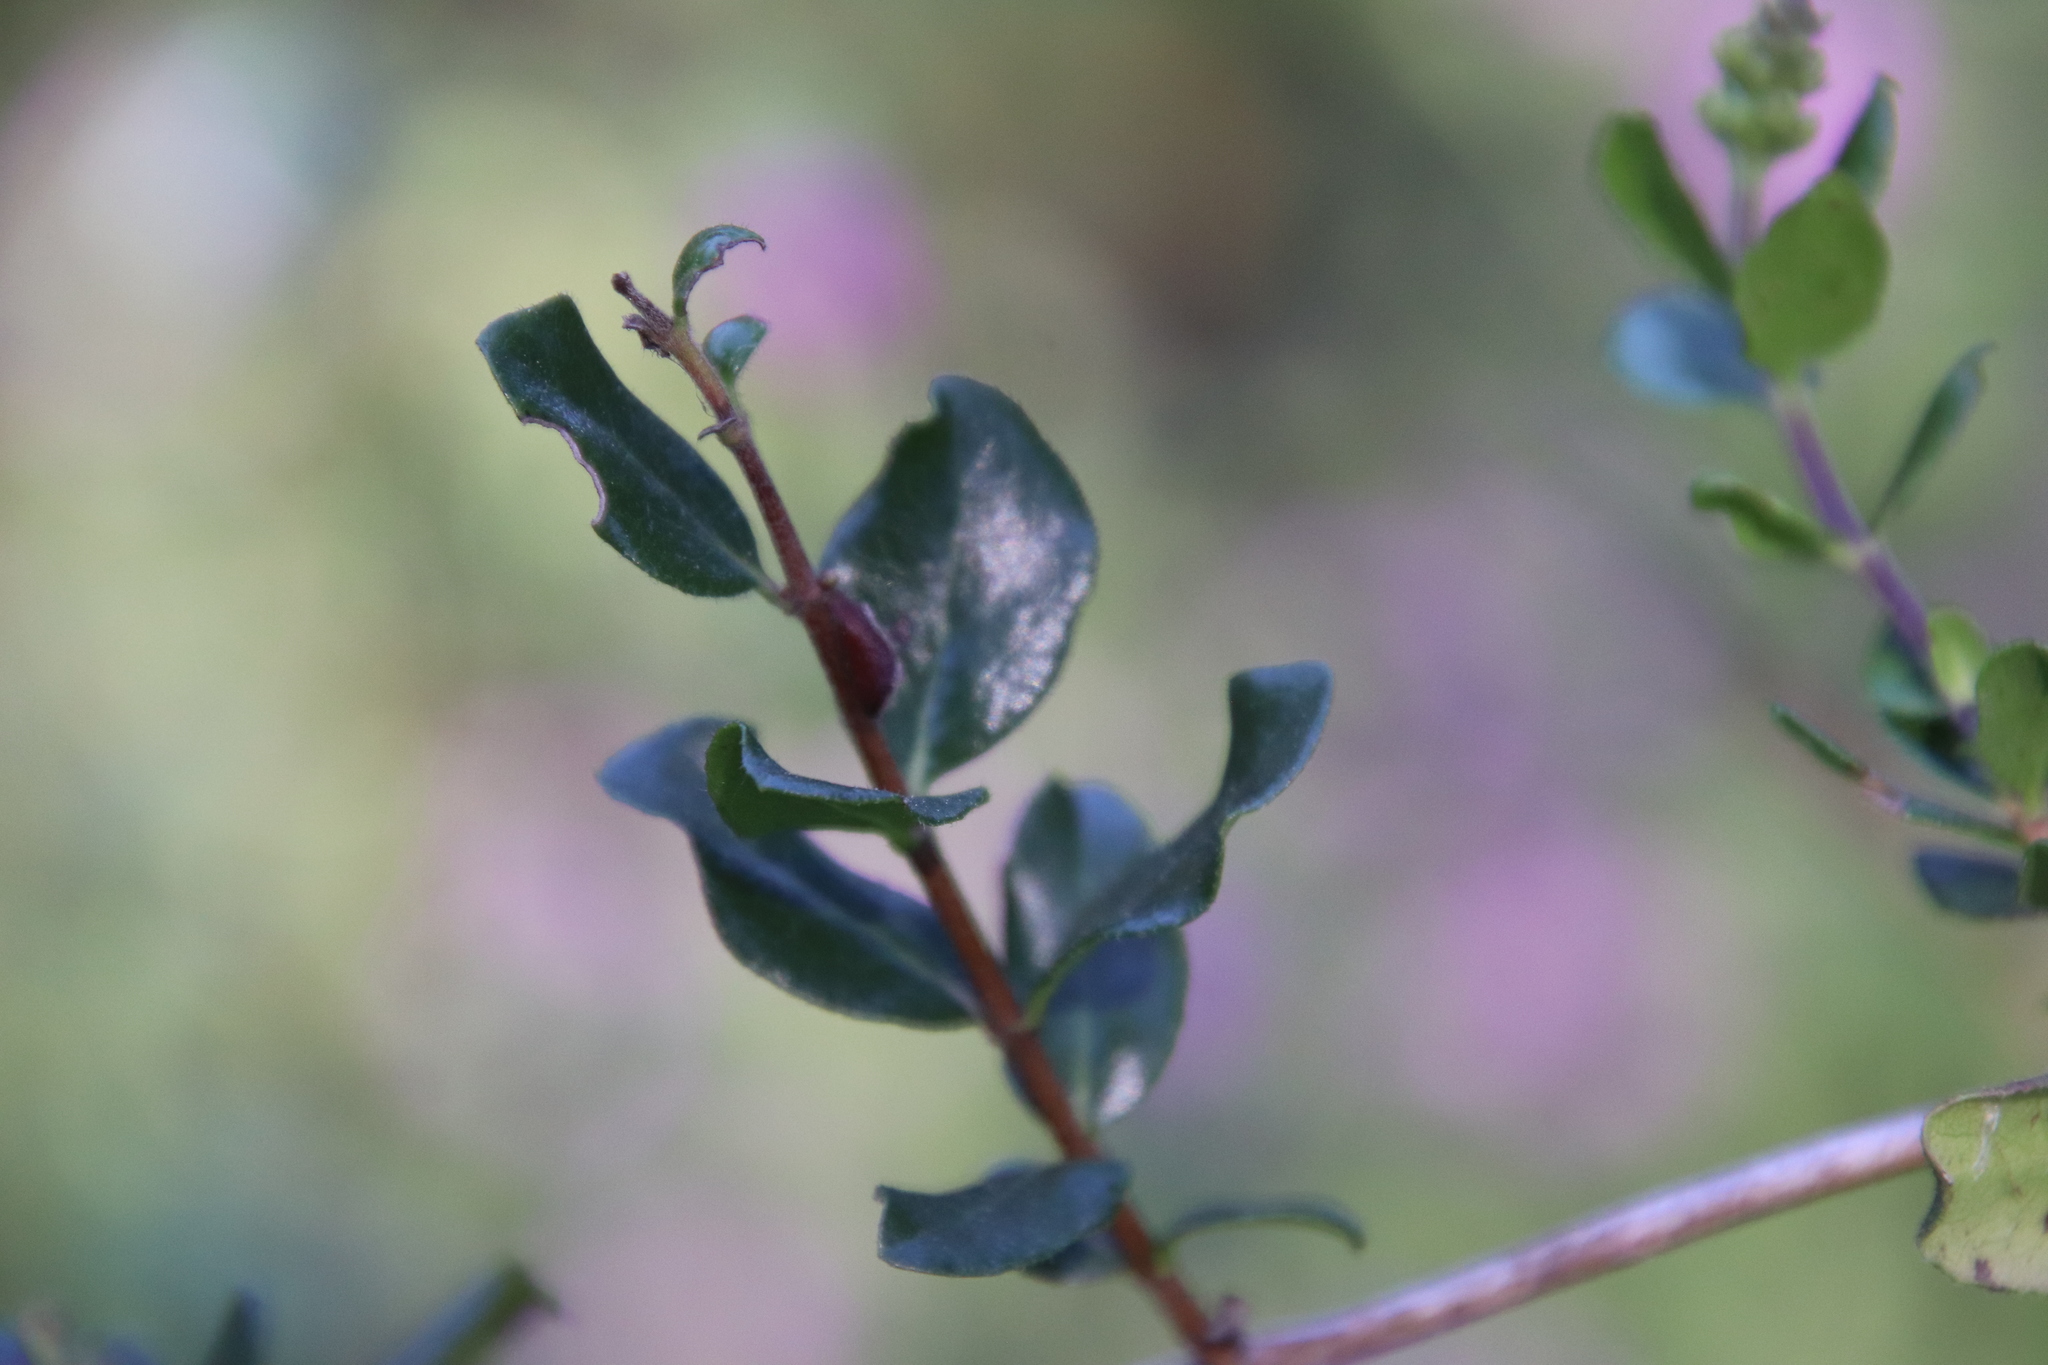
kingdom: Plantae
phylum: Tracheophyta
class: Magnoliopsida
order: Dipsacales
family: Caprifoliaceae
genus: Lonicera
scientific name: Lonicera subspicata
